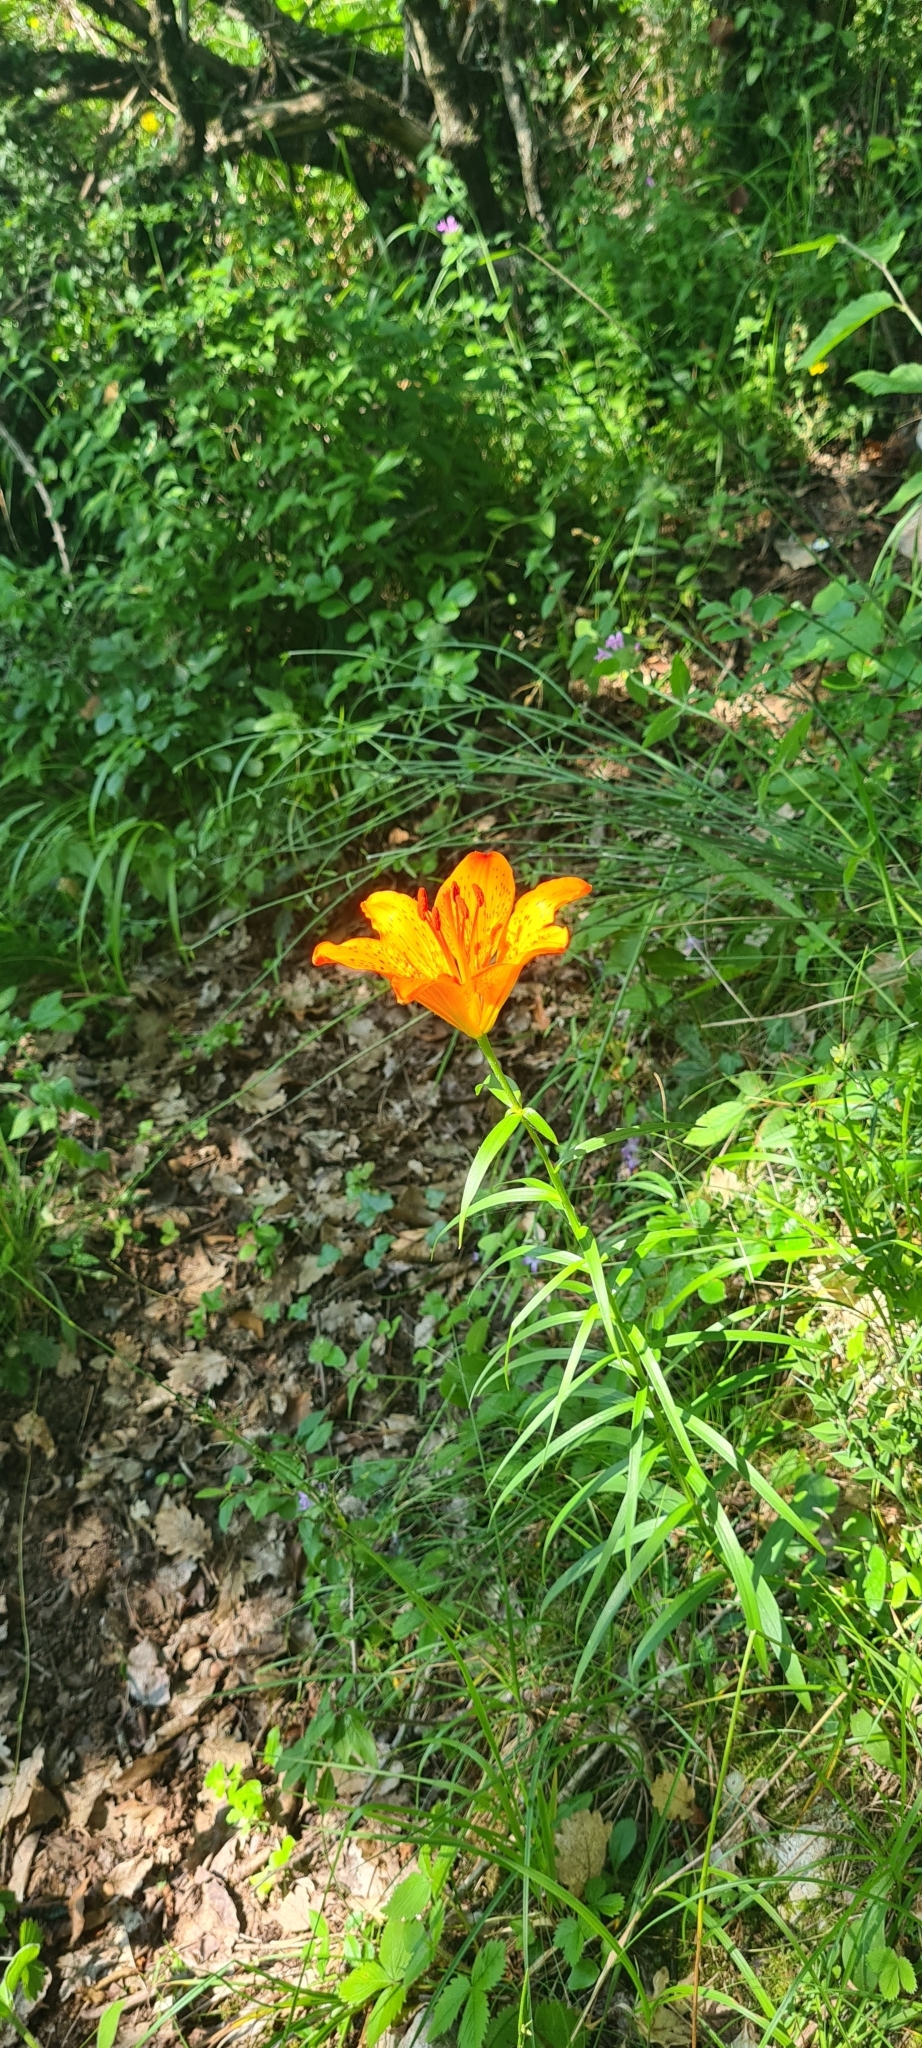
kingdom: Plantae
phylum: Tracheophyta
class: Liliopsida
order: Liliales
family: Liliaceae
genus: Lilium
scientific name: Lilium bulbiferum
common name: Orange lily
